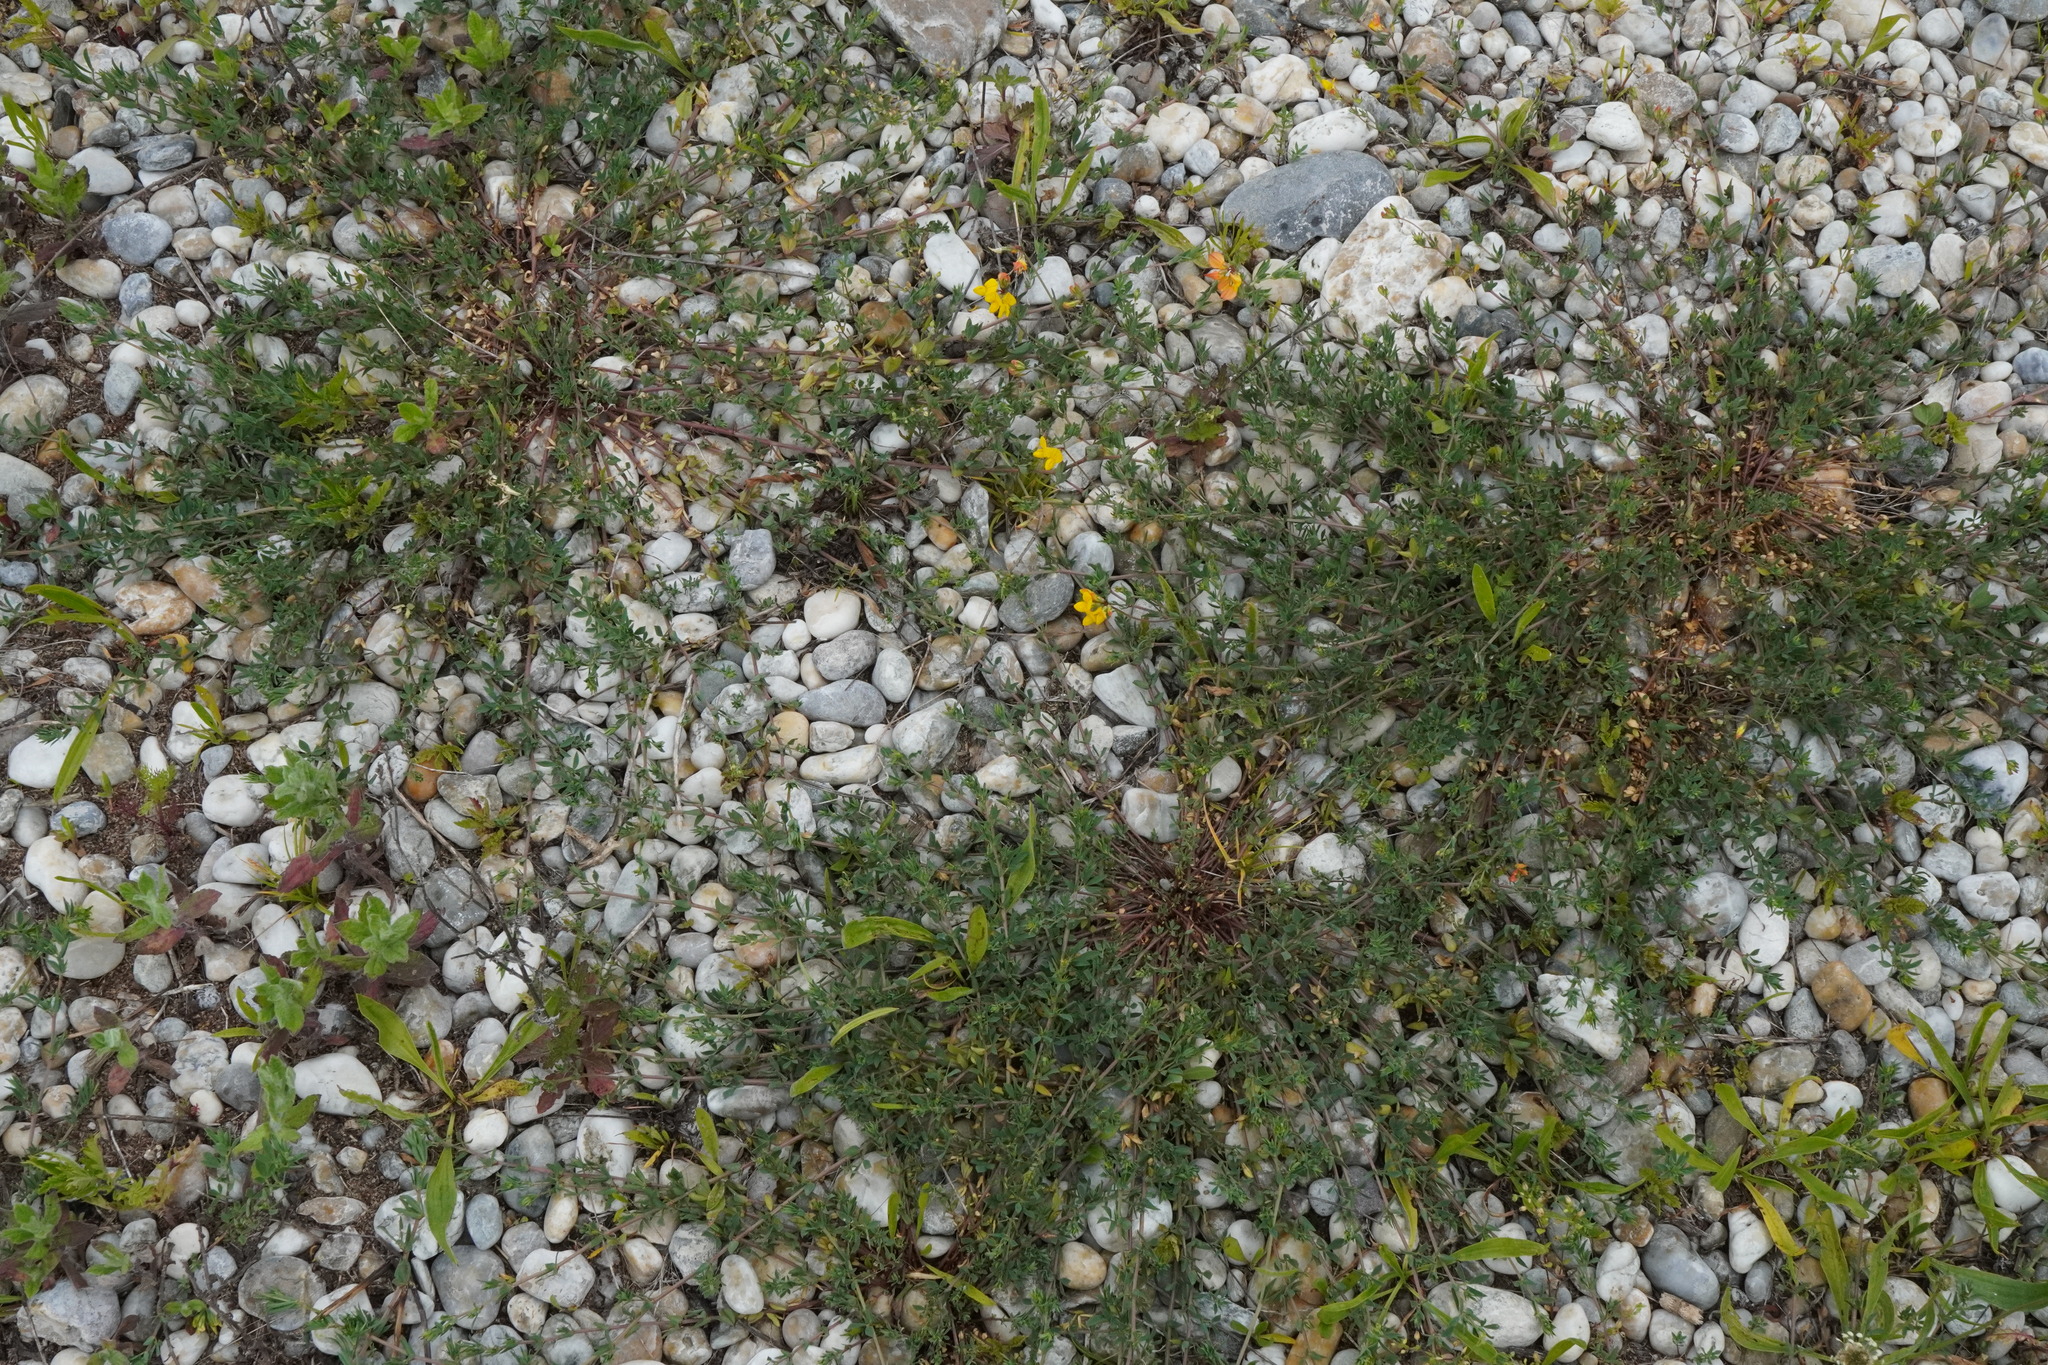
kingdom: Plantae
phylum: Tracheophyta
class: Magnoliopsida
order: Fabales
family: Fabaceae
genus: Lotus
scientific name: Lotus tenuis
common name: Narrow-leaved bird's-foot-trefoil
